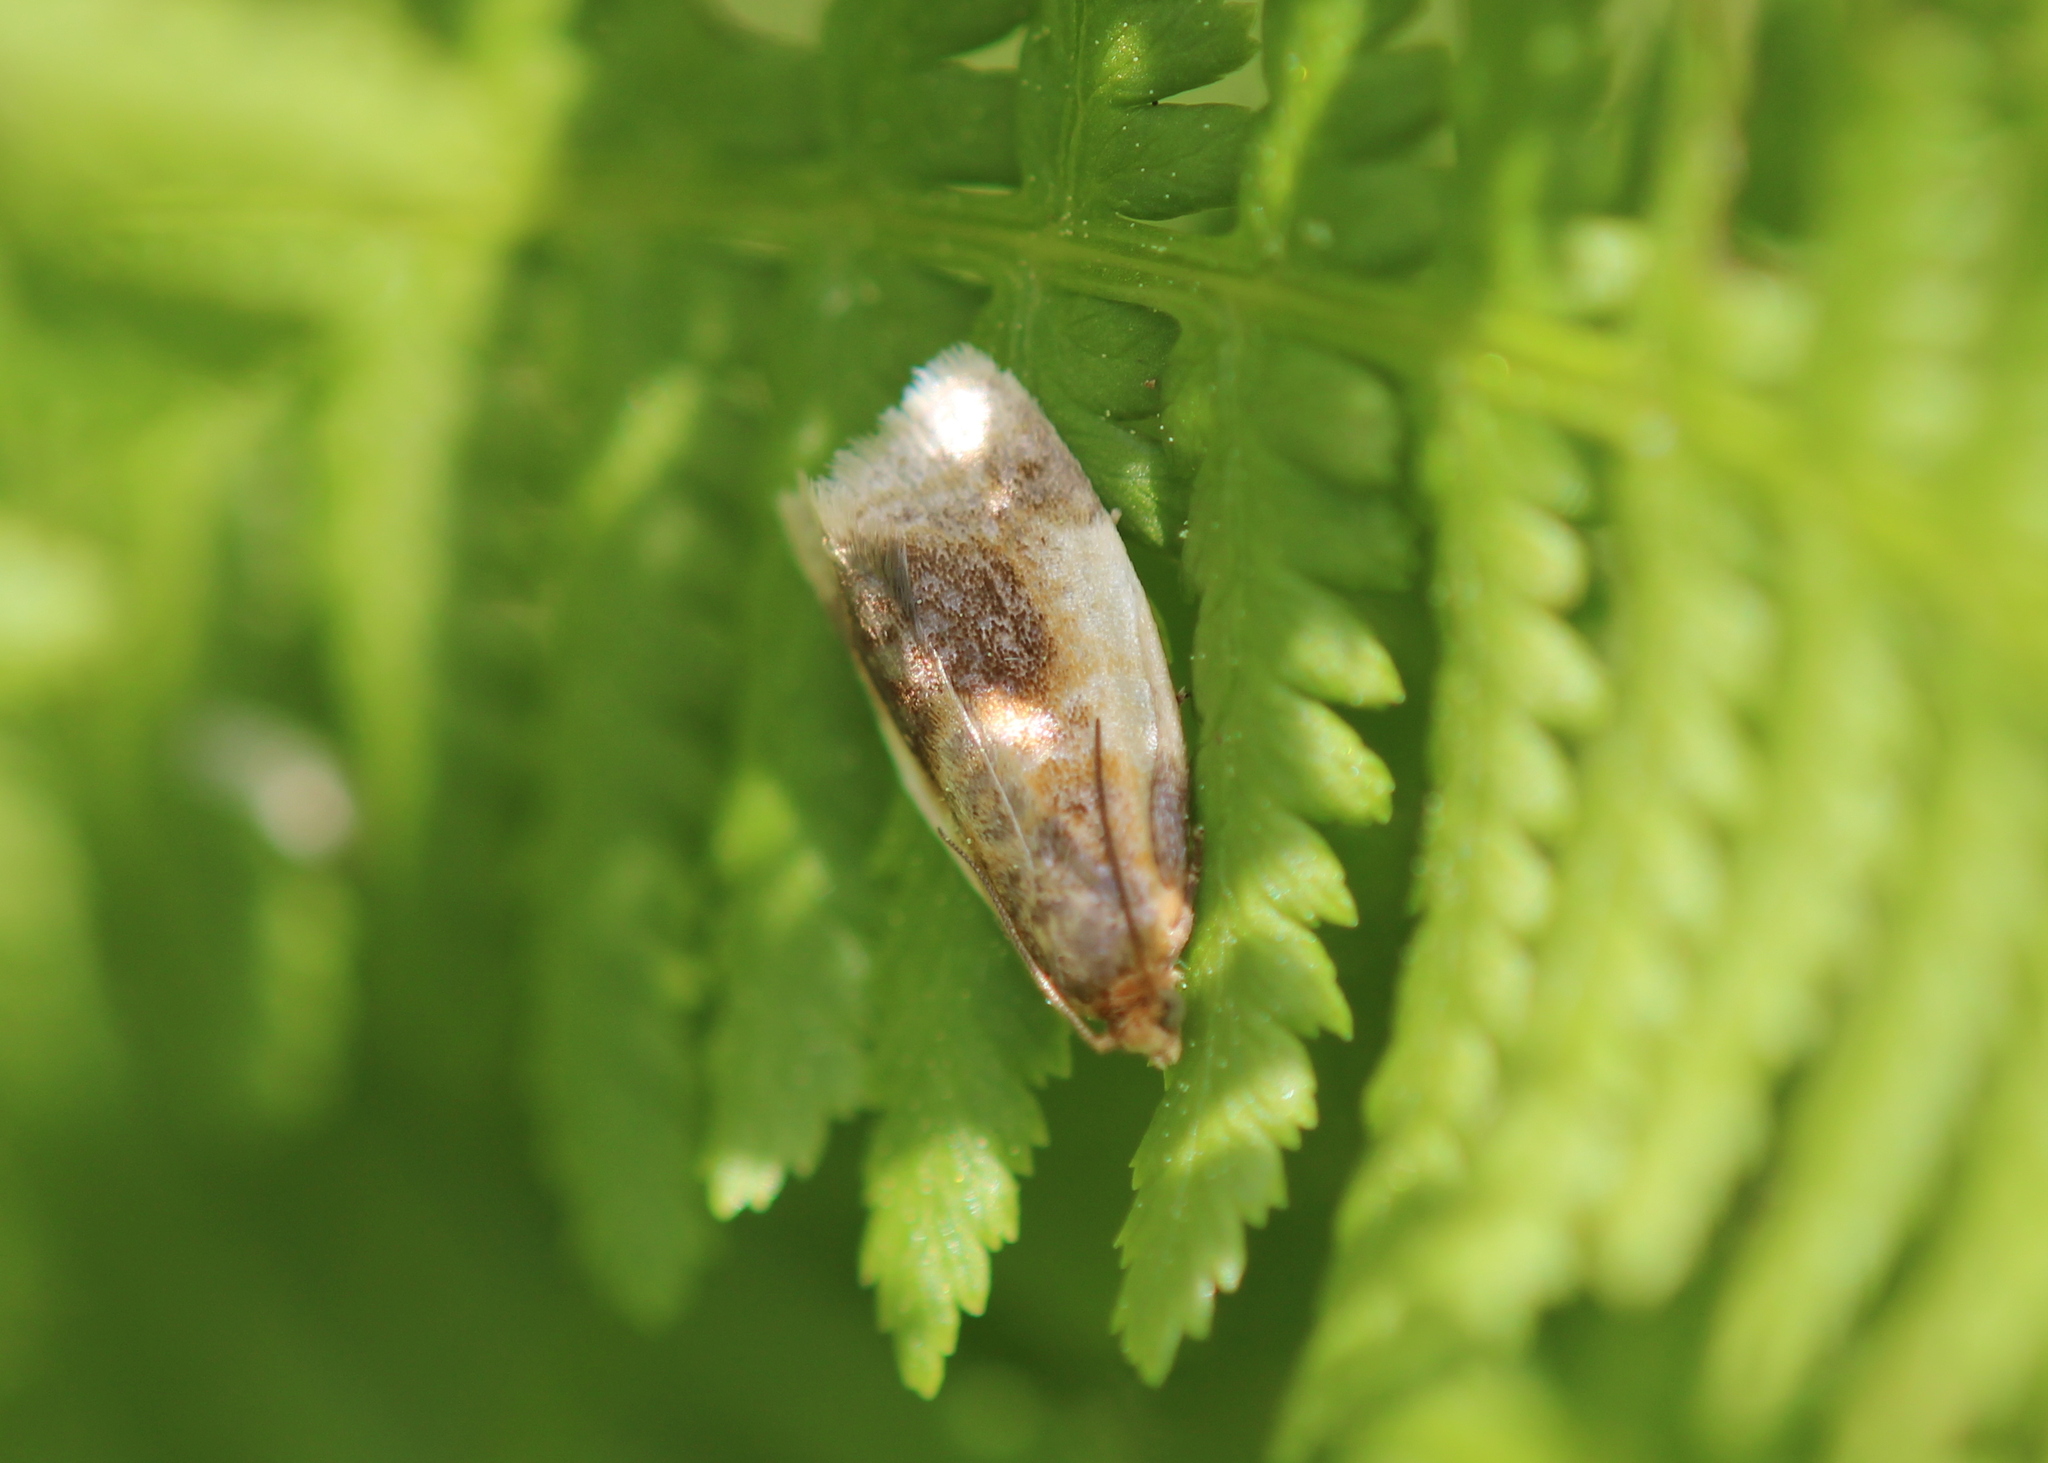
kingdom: Animalia
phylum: Arthropoda
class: Insecta
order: Lepidoptera
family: Tortricidae
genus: Clepsis
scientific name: Clepsis melaleucanus
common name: American apple tortrix
